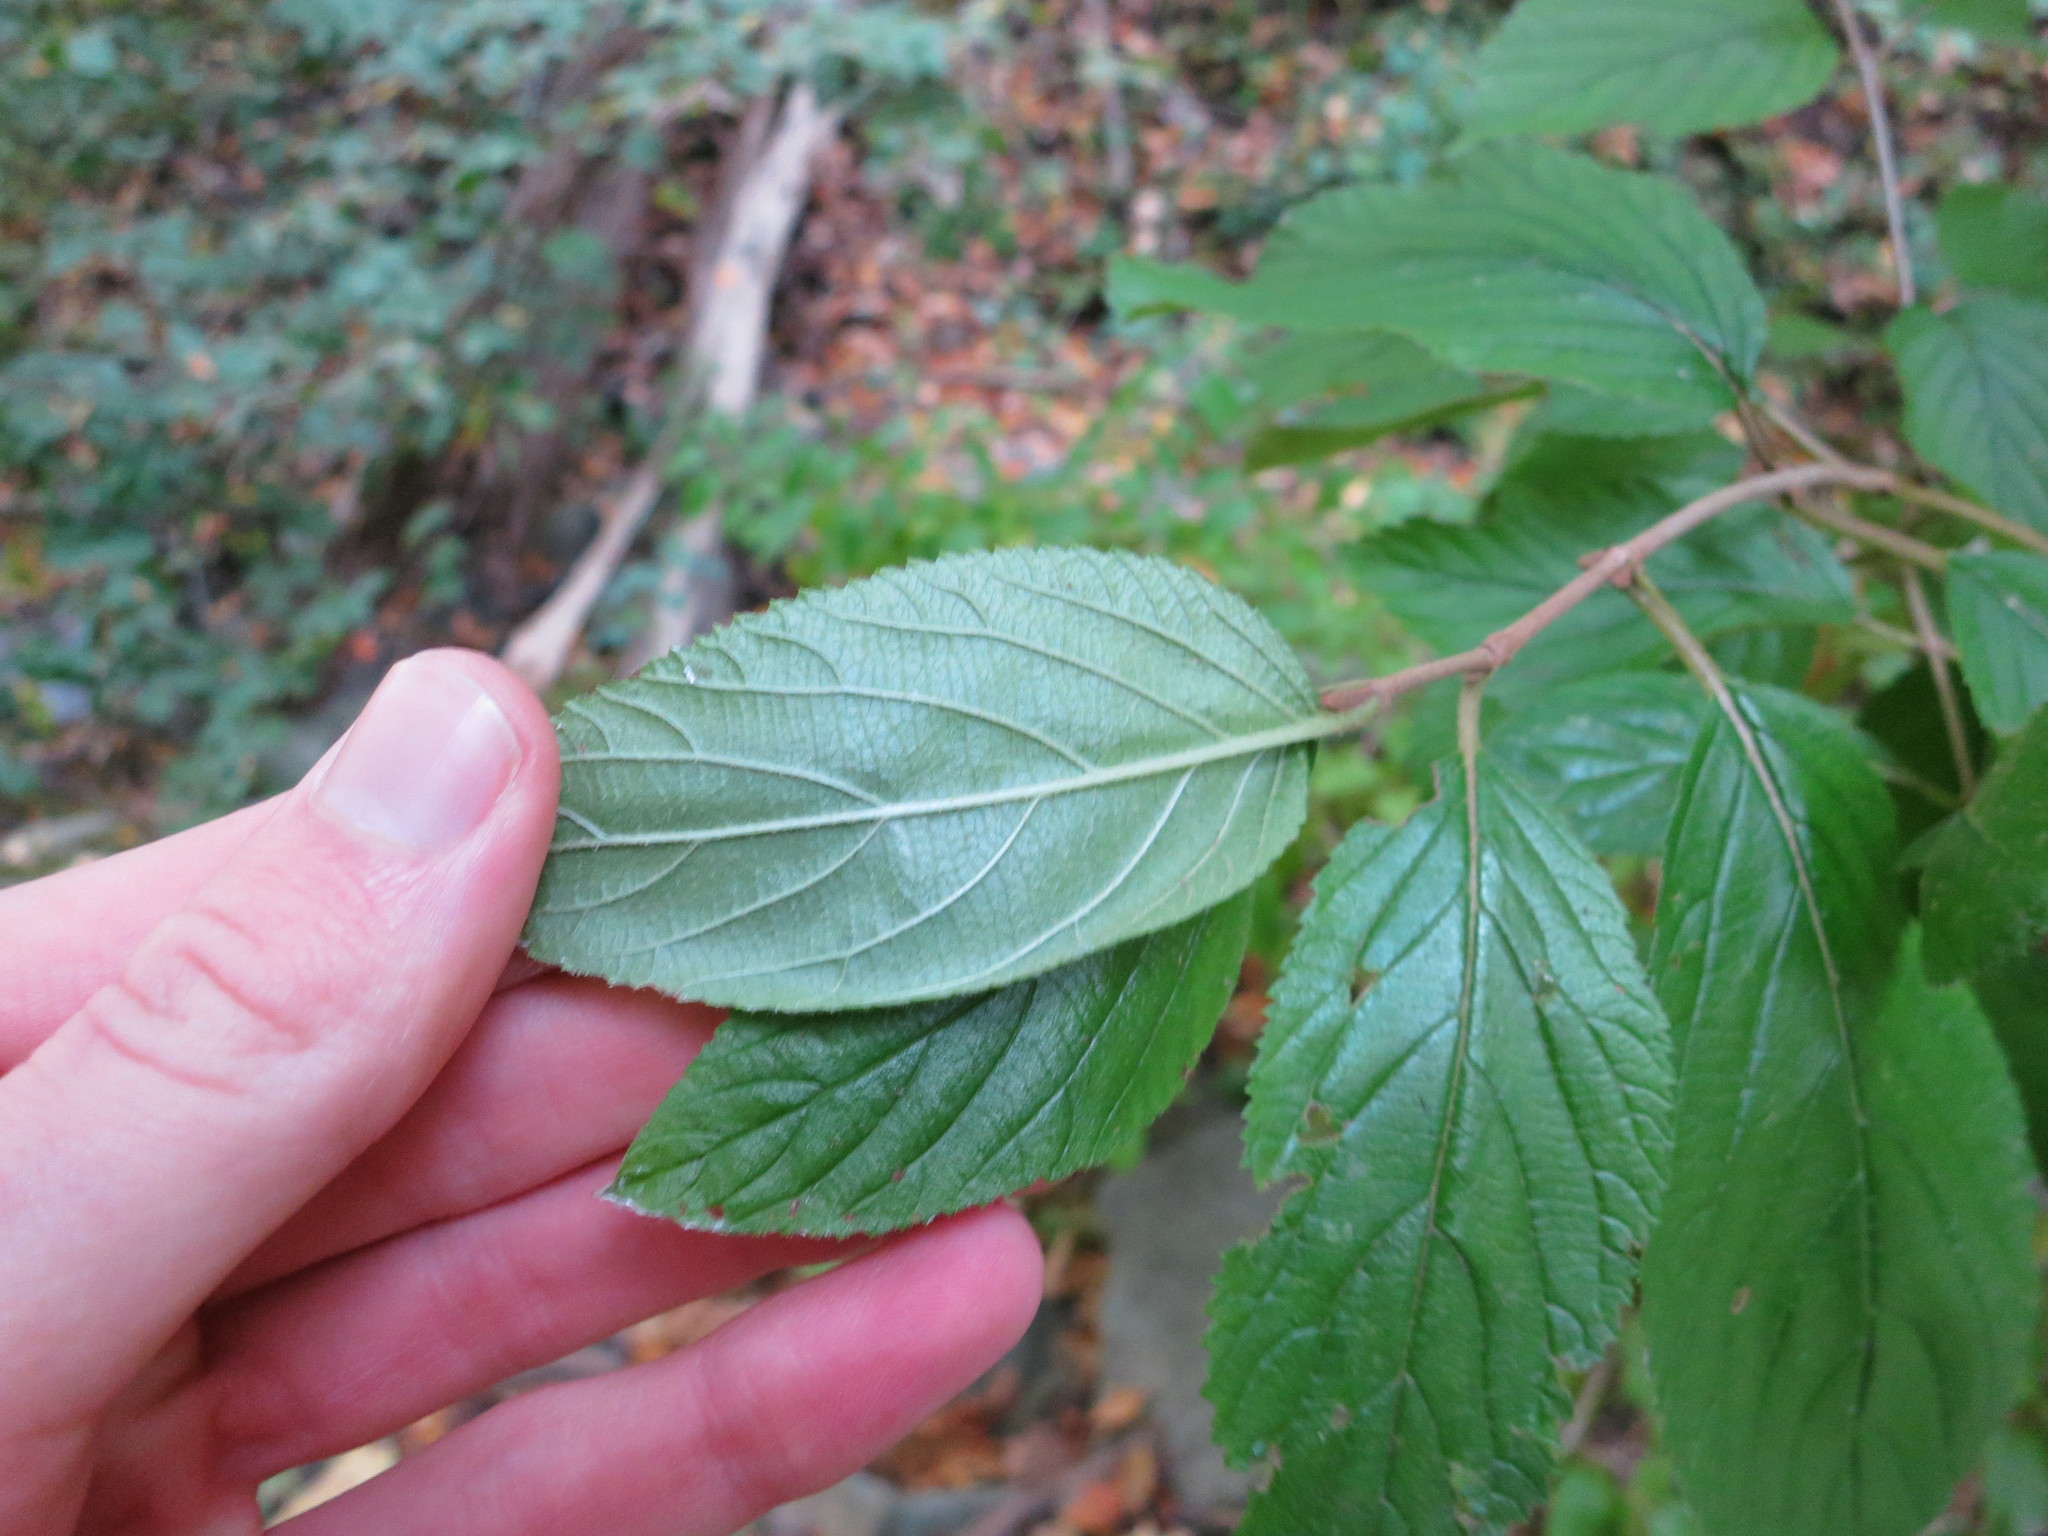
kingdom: Plantae
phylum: Tracheophyta
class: Magnoliopsida
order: Dipsacales
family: Viburnaceae
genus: Viburnum
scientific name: Viburnum plicatum
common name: Japanese snowball
